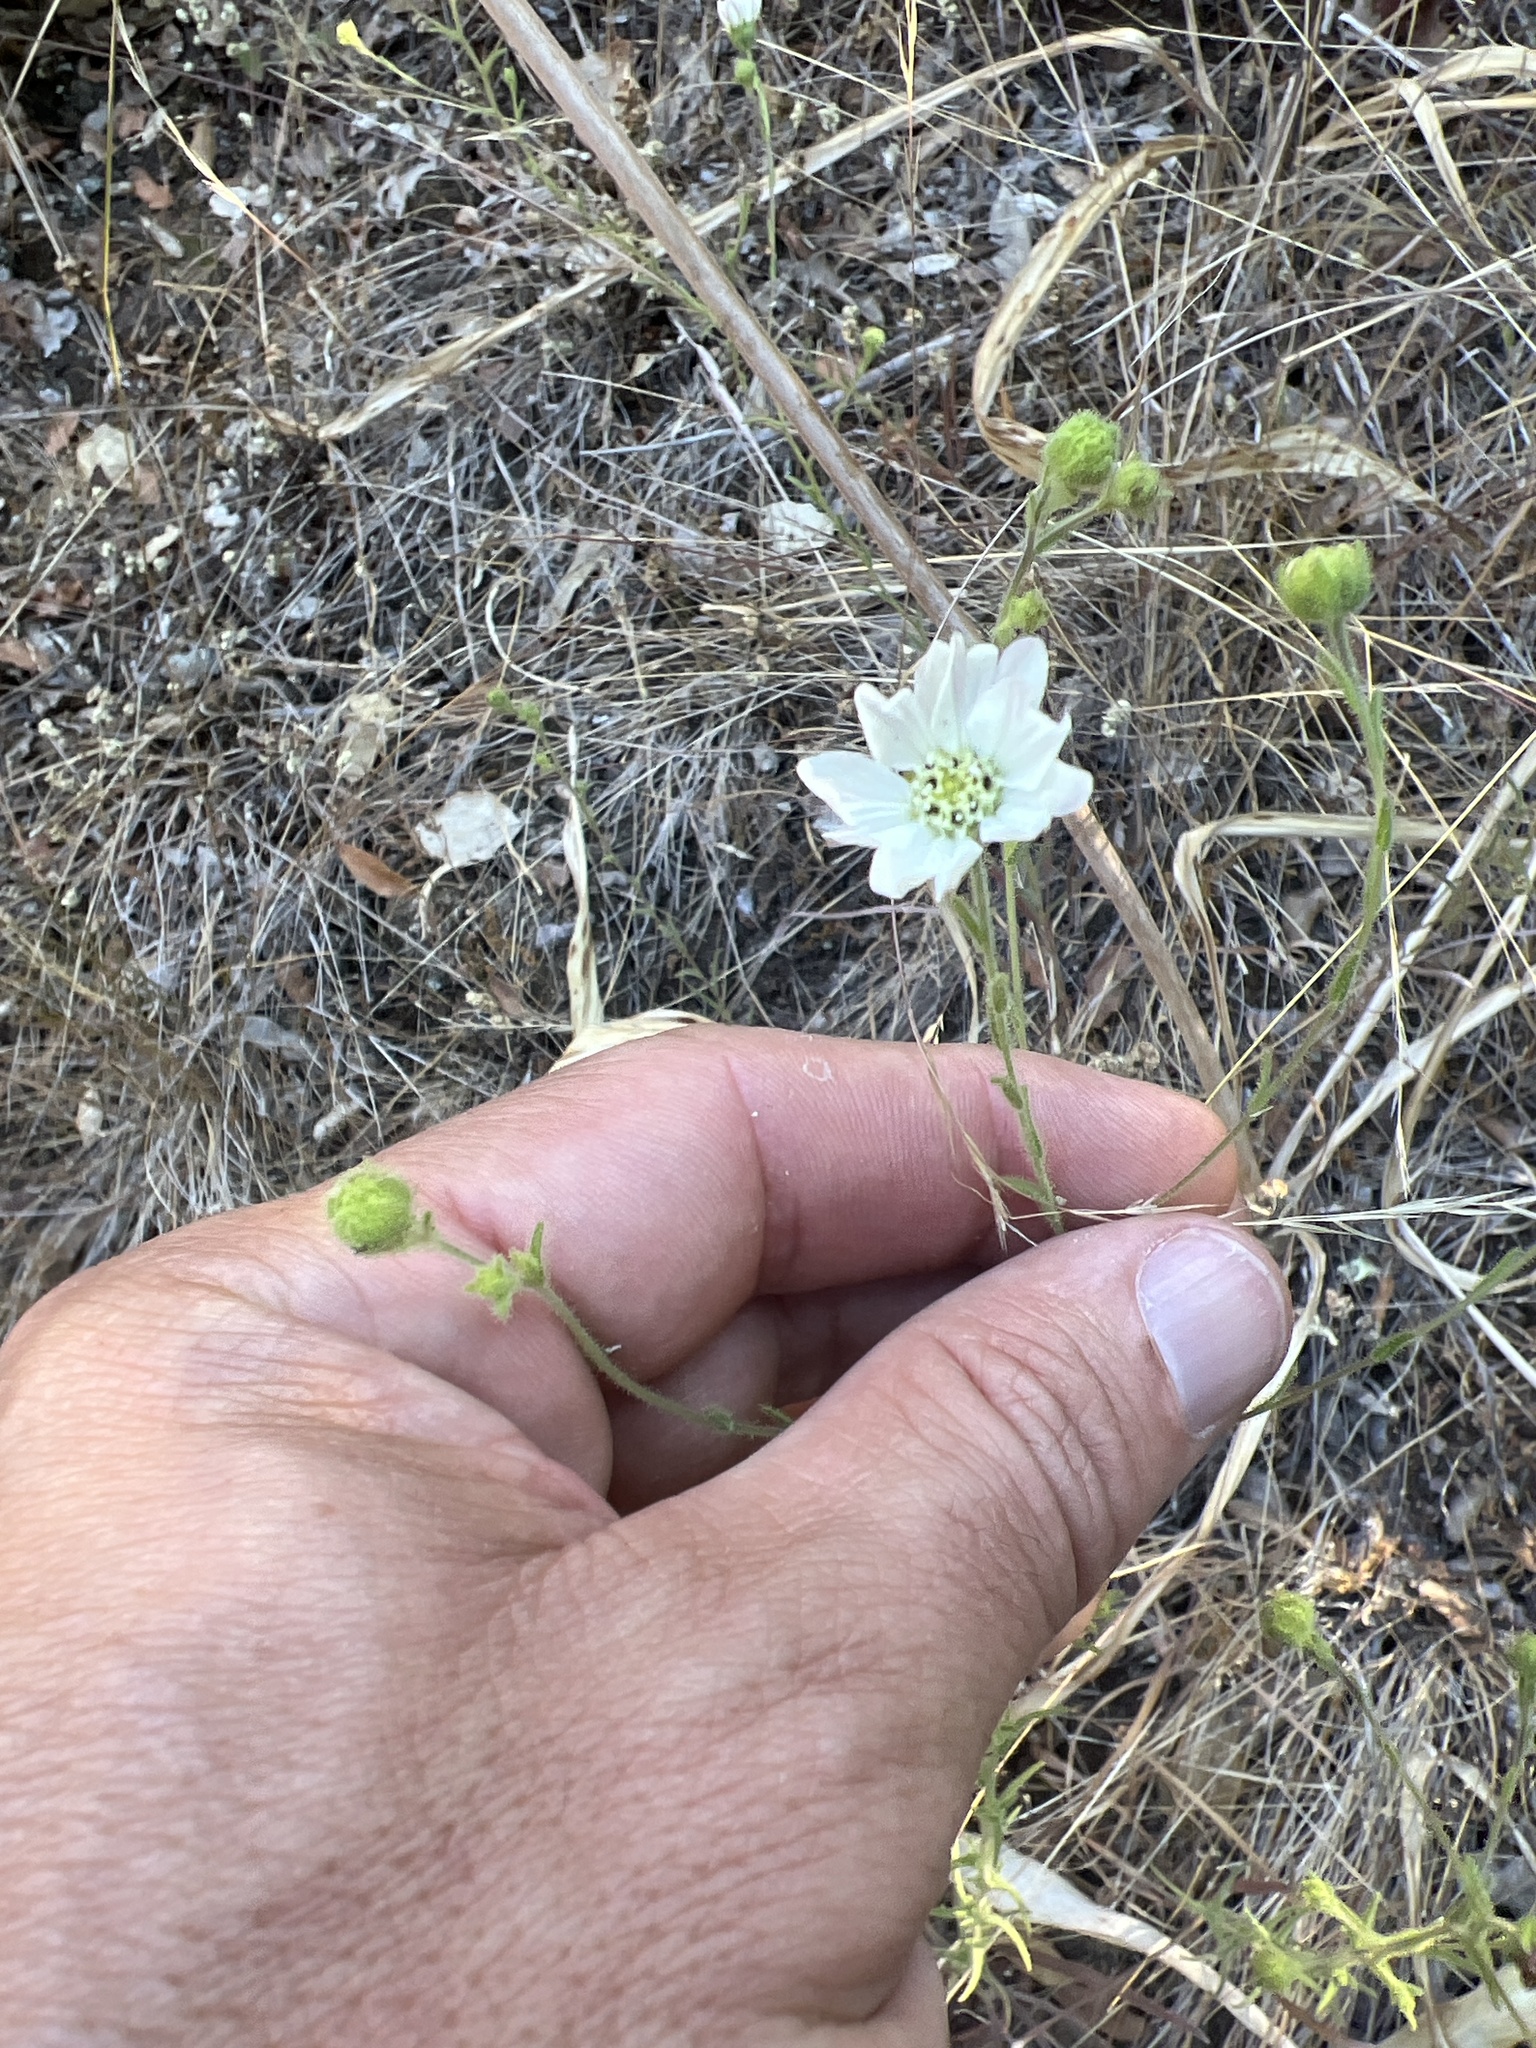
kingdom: Plantae
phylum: Tracheophyta
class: Magnoliopsida
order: Asterales
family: Asteraceae
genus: Hemizonia
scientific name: Hemizonia congesta
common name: Hayfield tarweed
